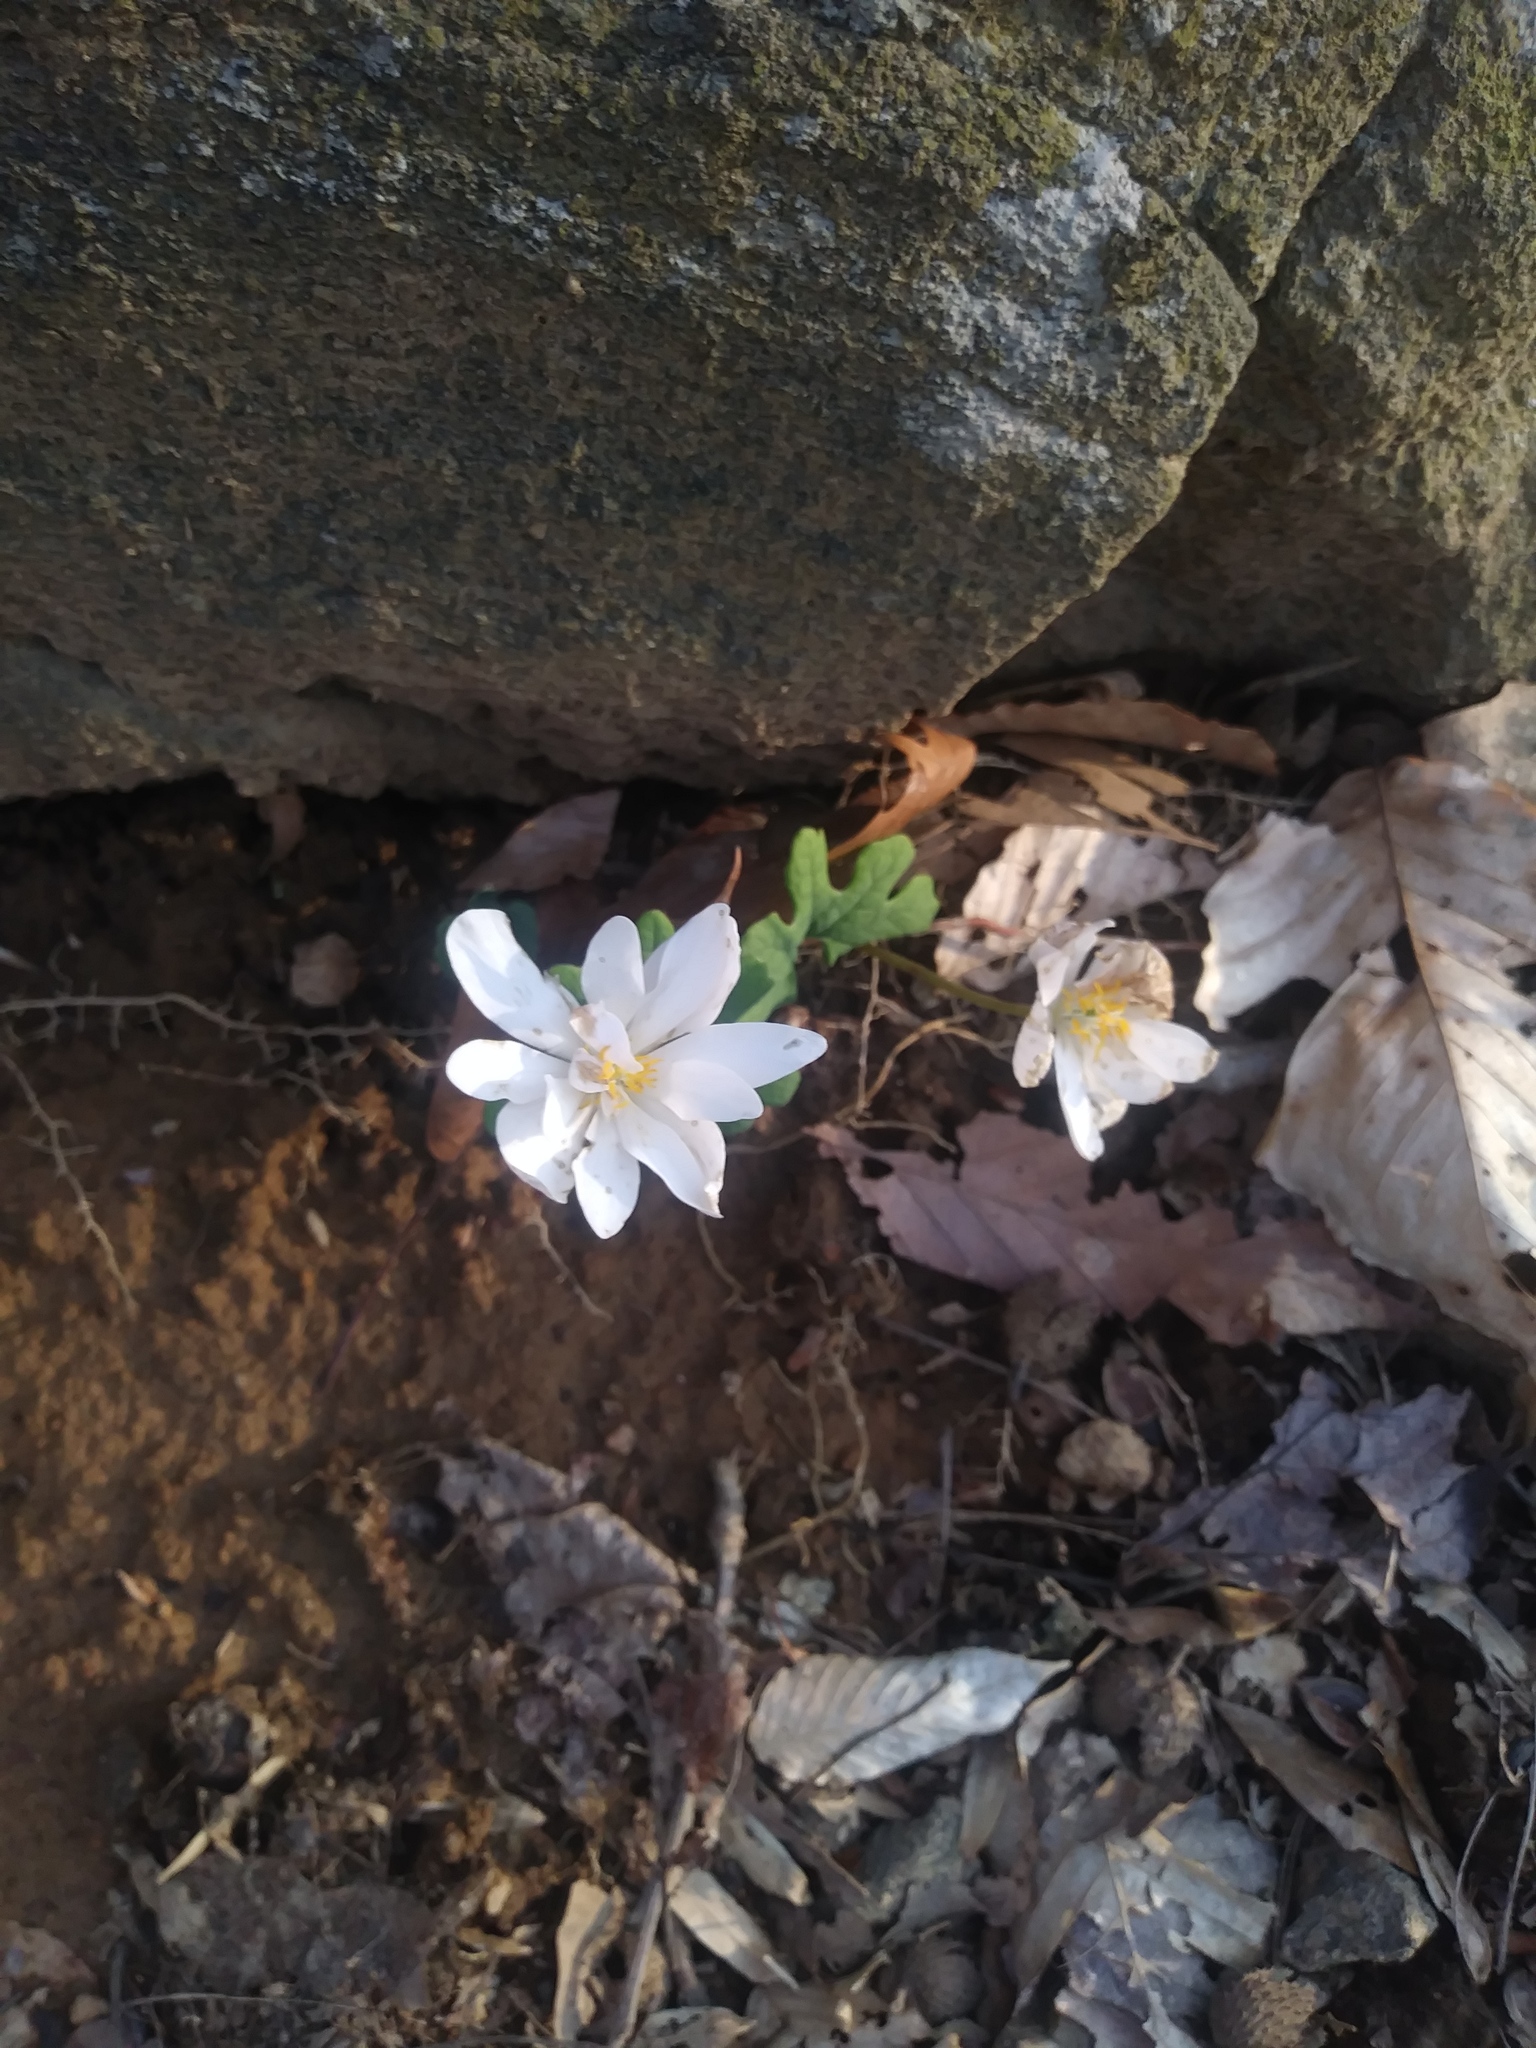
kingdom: Plantae
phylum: Tracheophyta
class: Magnoliopsida
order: Ranunculales
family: Papaveraceae
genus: Sanguinaria
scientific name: Sanguinaria canadensis
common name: Bloodroot
